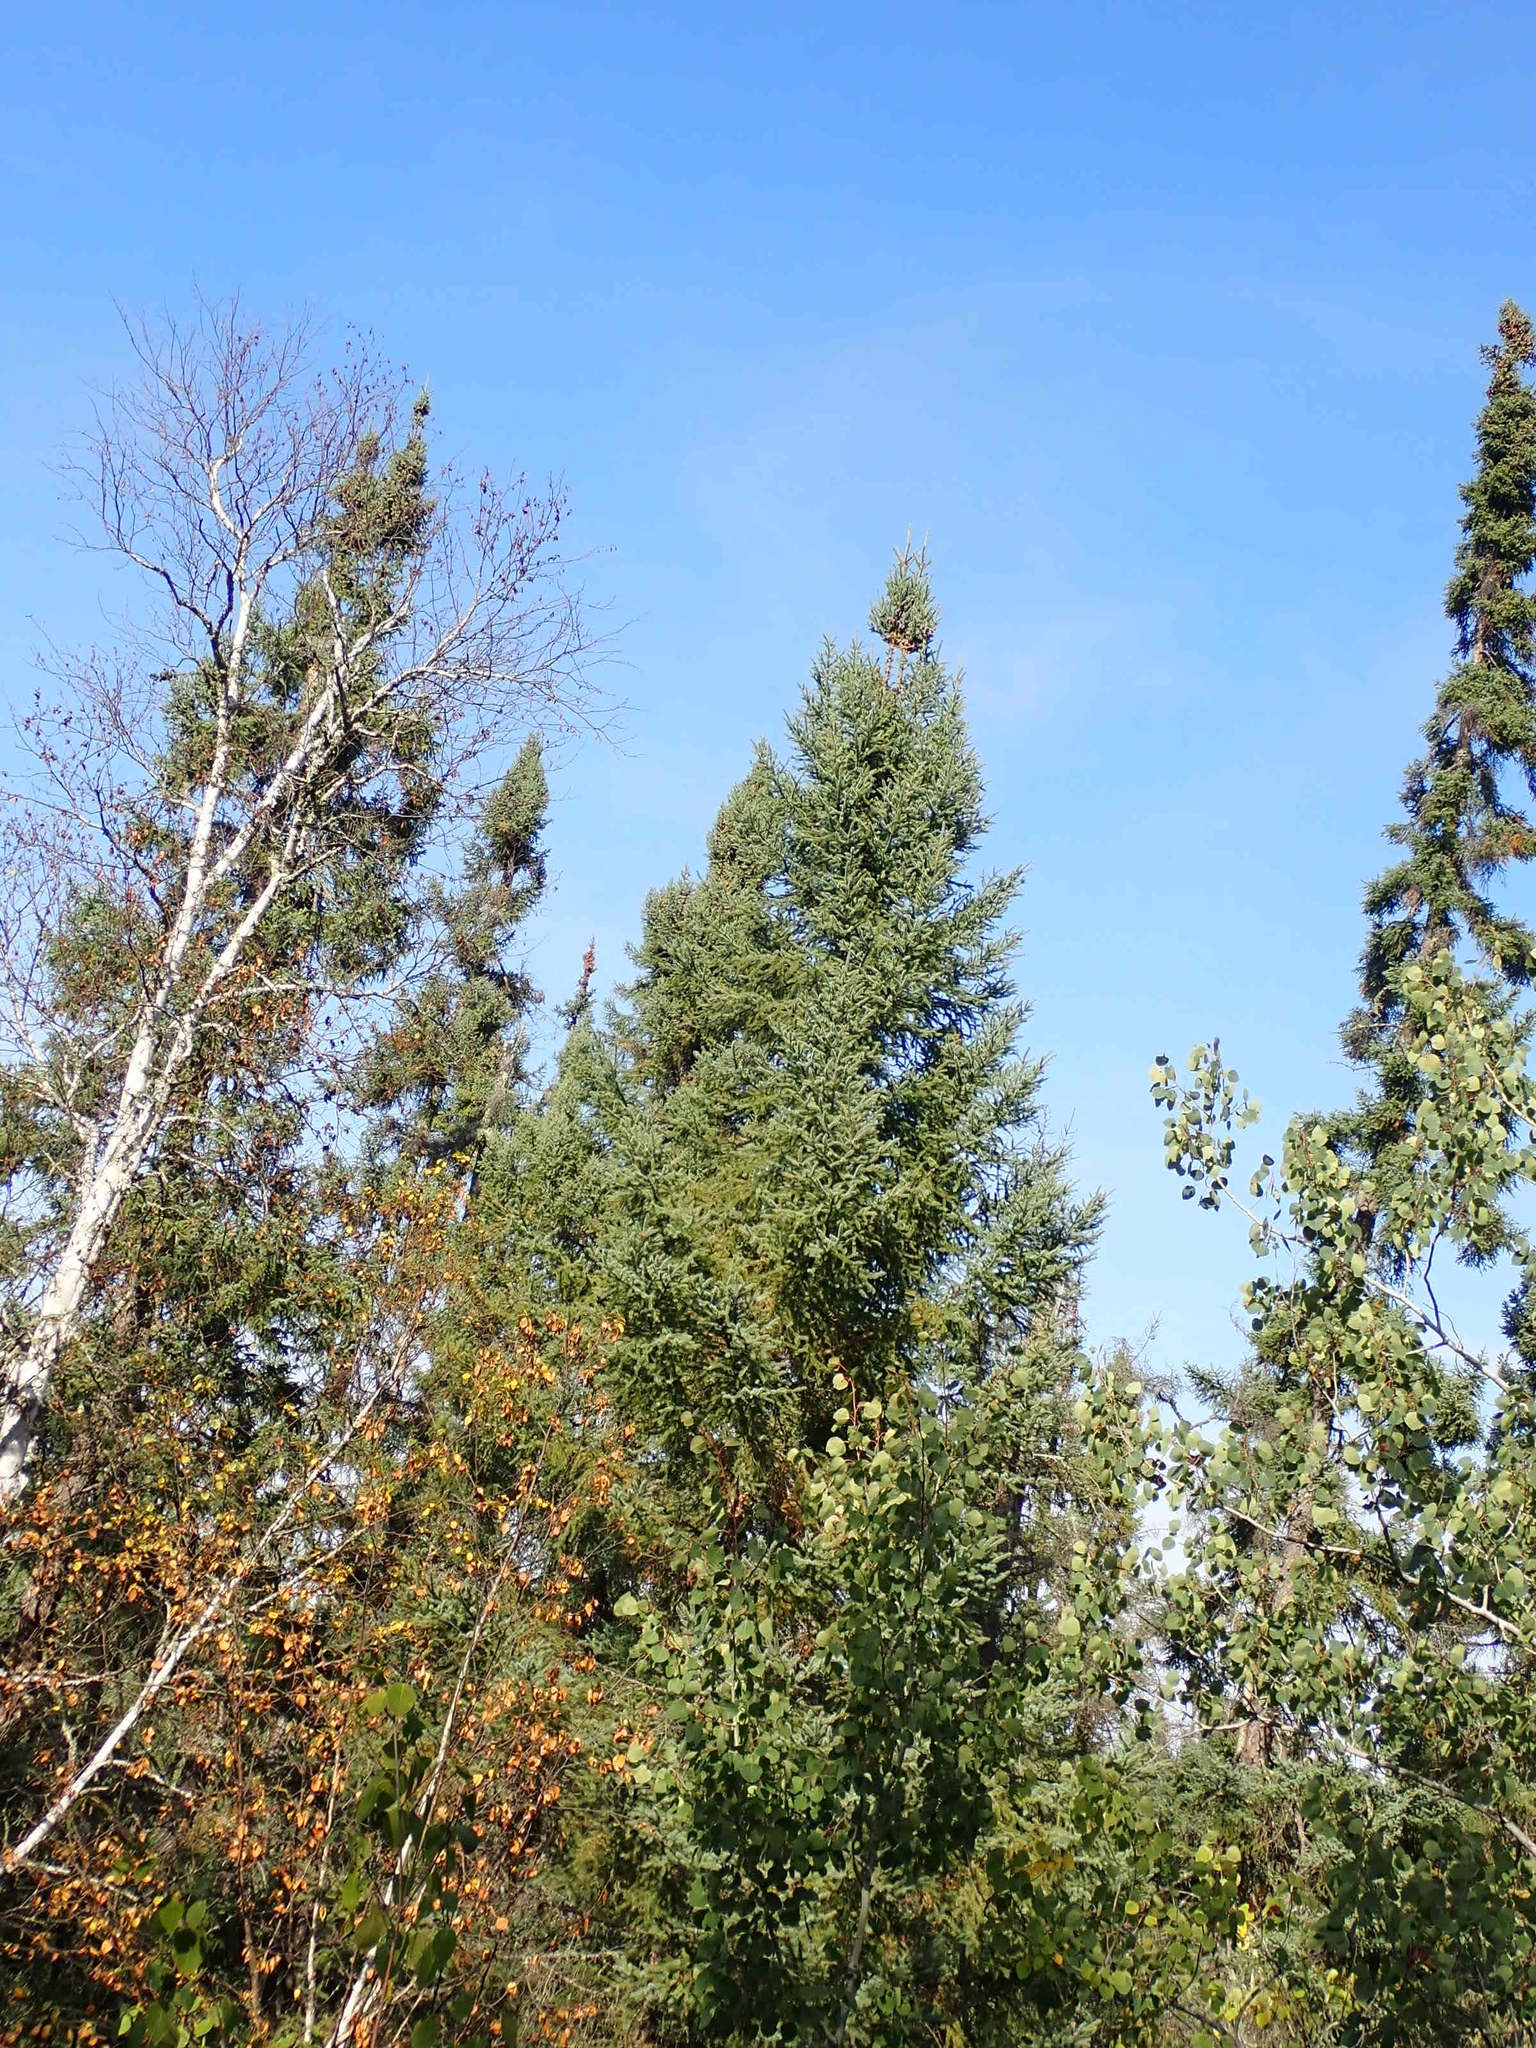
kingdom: Plantae
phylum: Tracheophyta
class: Pinopsida
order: Pinales
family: Pinaceae
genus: Picea
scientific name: Picea glauca
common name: White spruce
